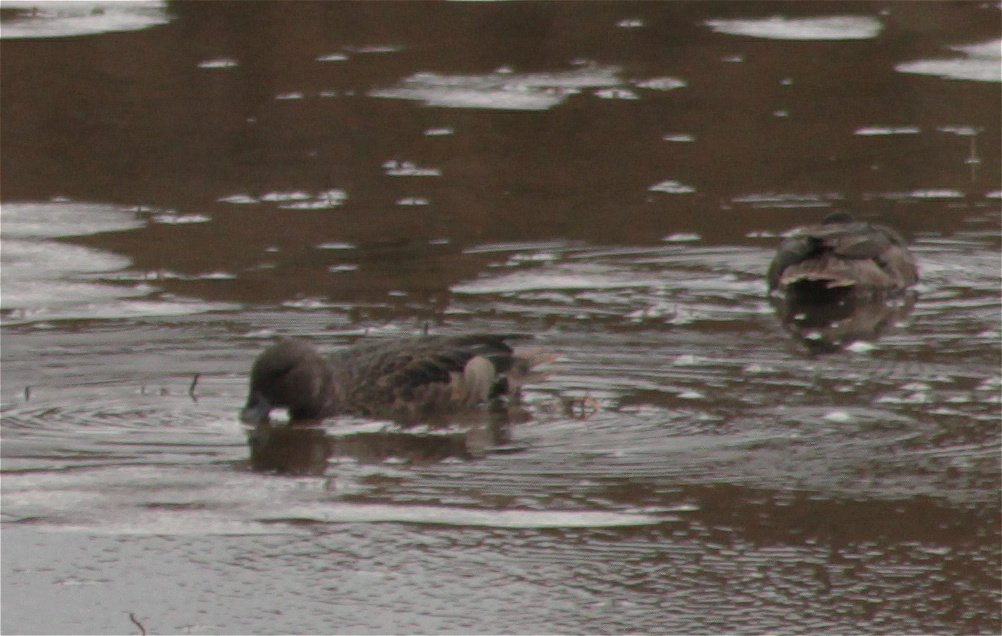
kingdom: Animalia
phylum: Chordata
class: Aves
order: Anseriformes
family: Anatidae
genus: Anas
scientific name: Anas andium
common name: Andean teal
